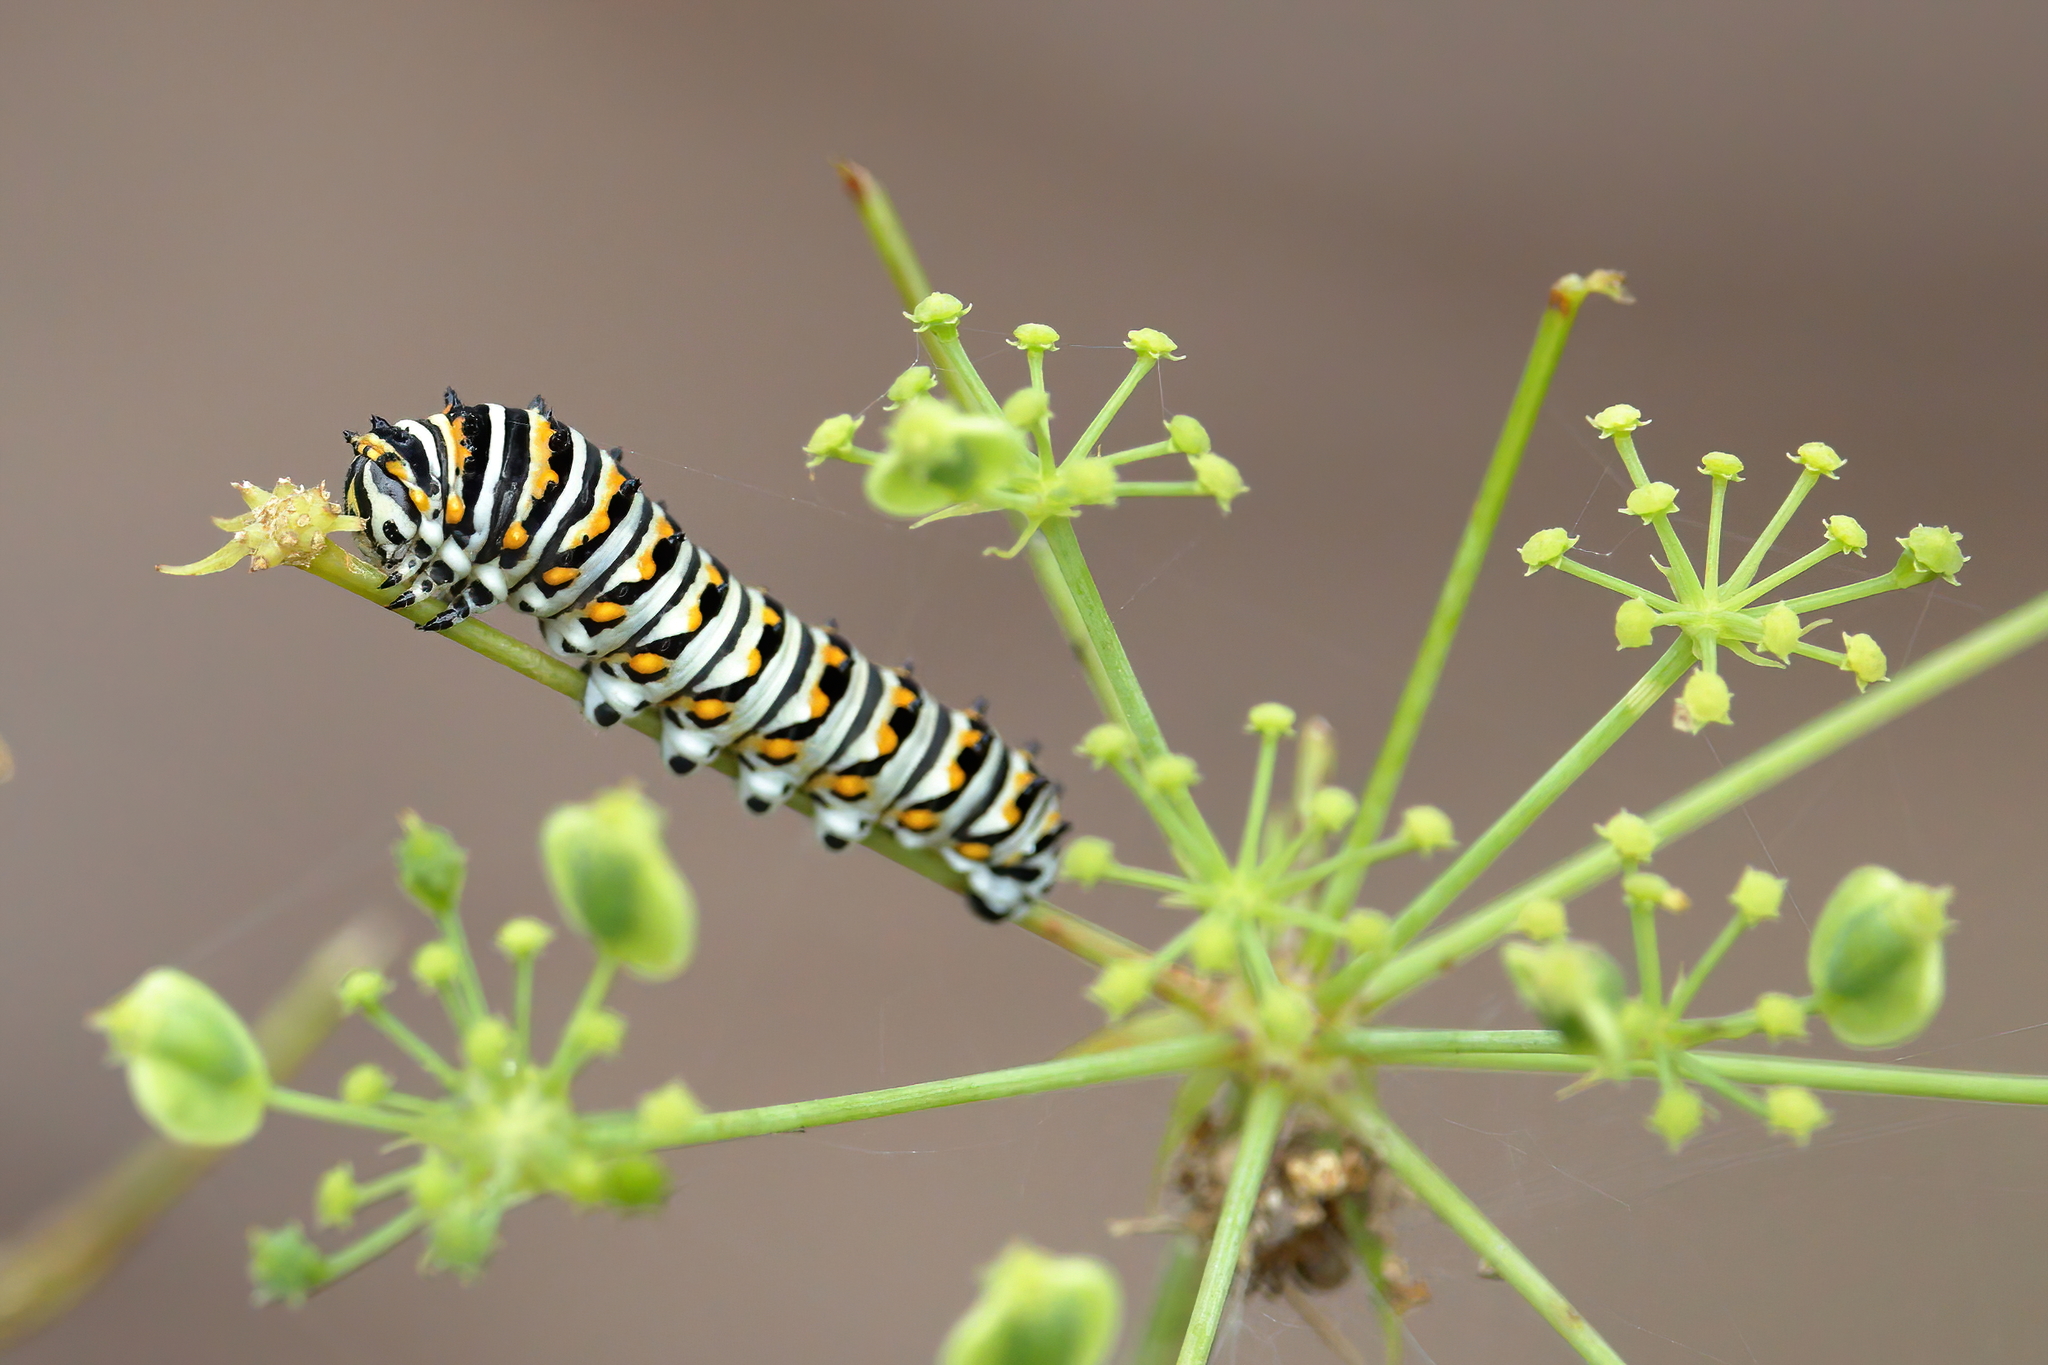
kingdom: Animalia
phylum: Arthropoda
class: Insecta
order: Lepidoptera
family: Papilionidae
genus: Papilio
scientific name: Papilio polyxenes
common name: Black swallowtail
